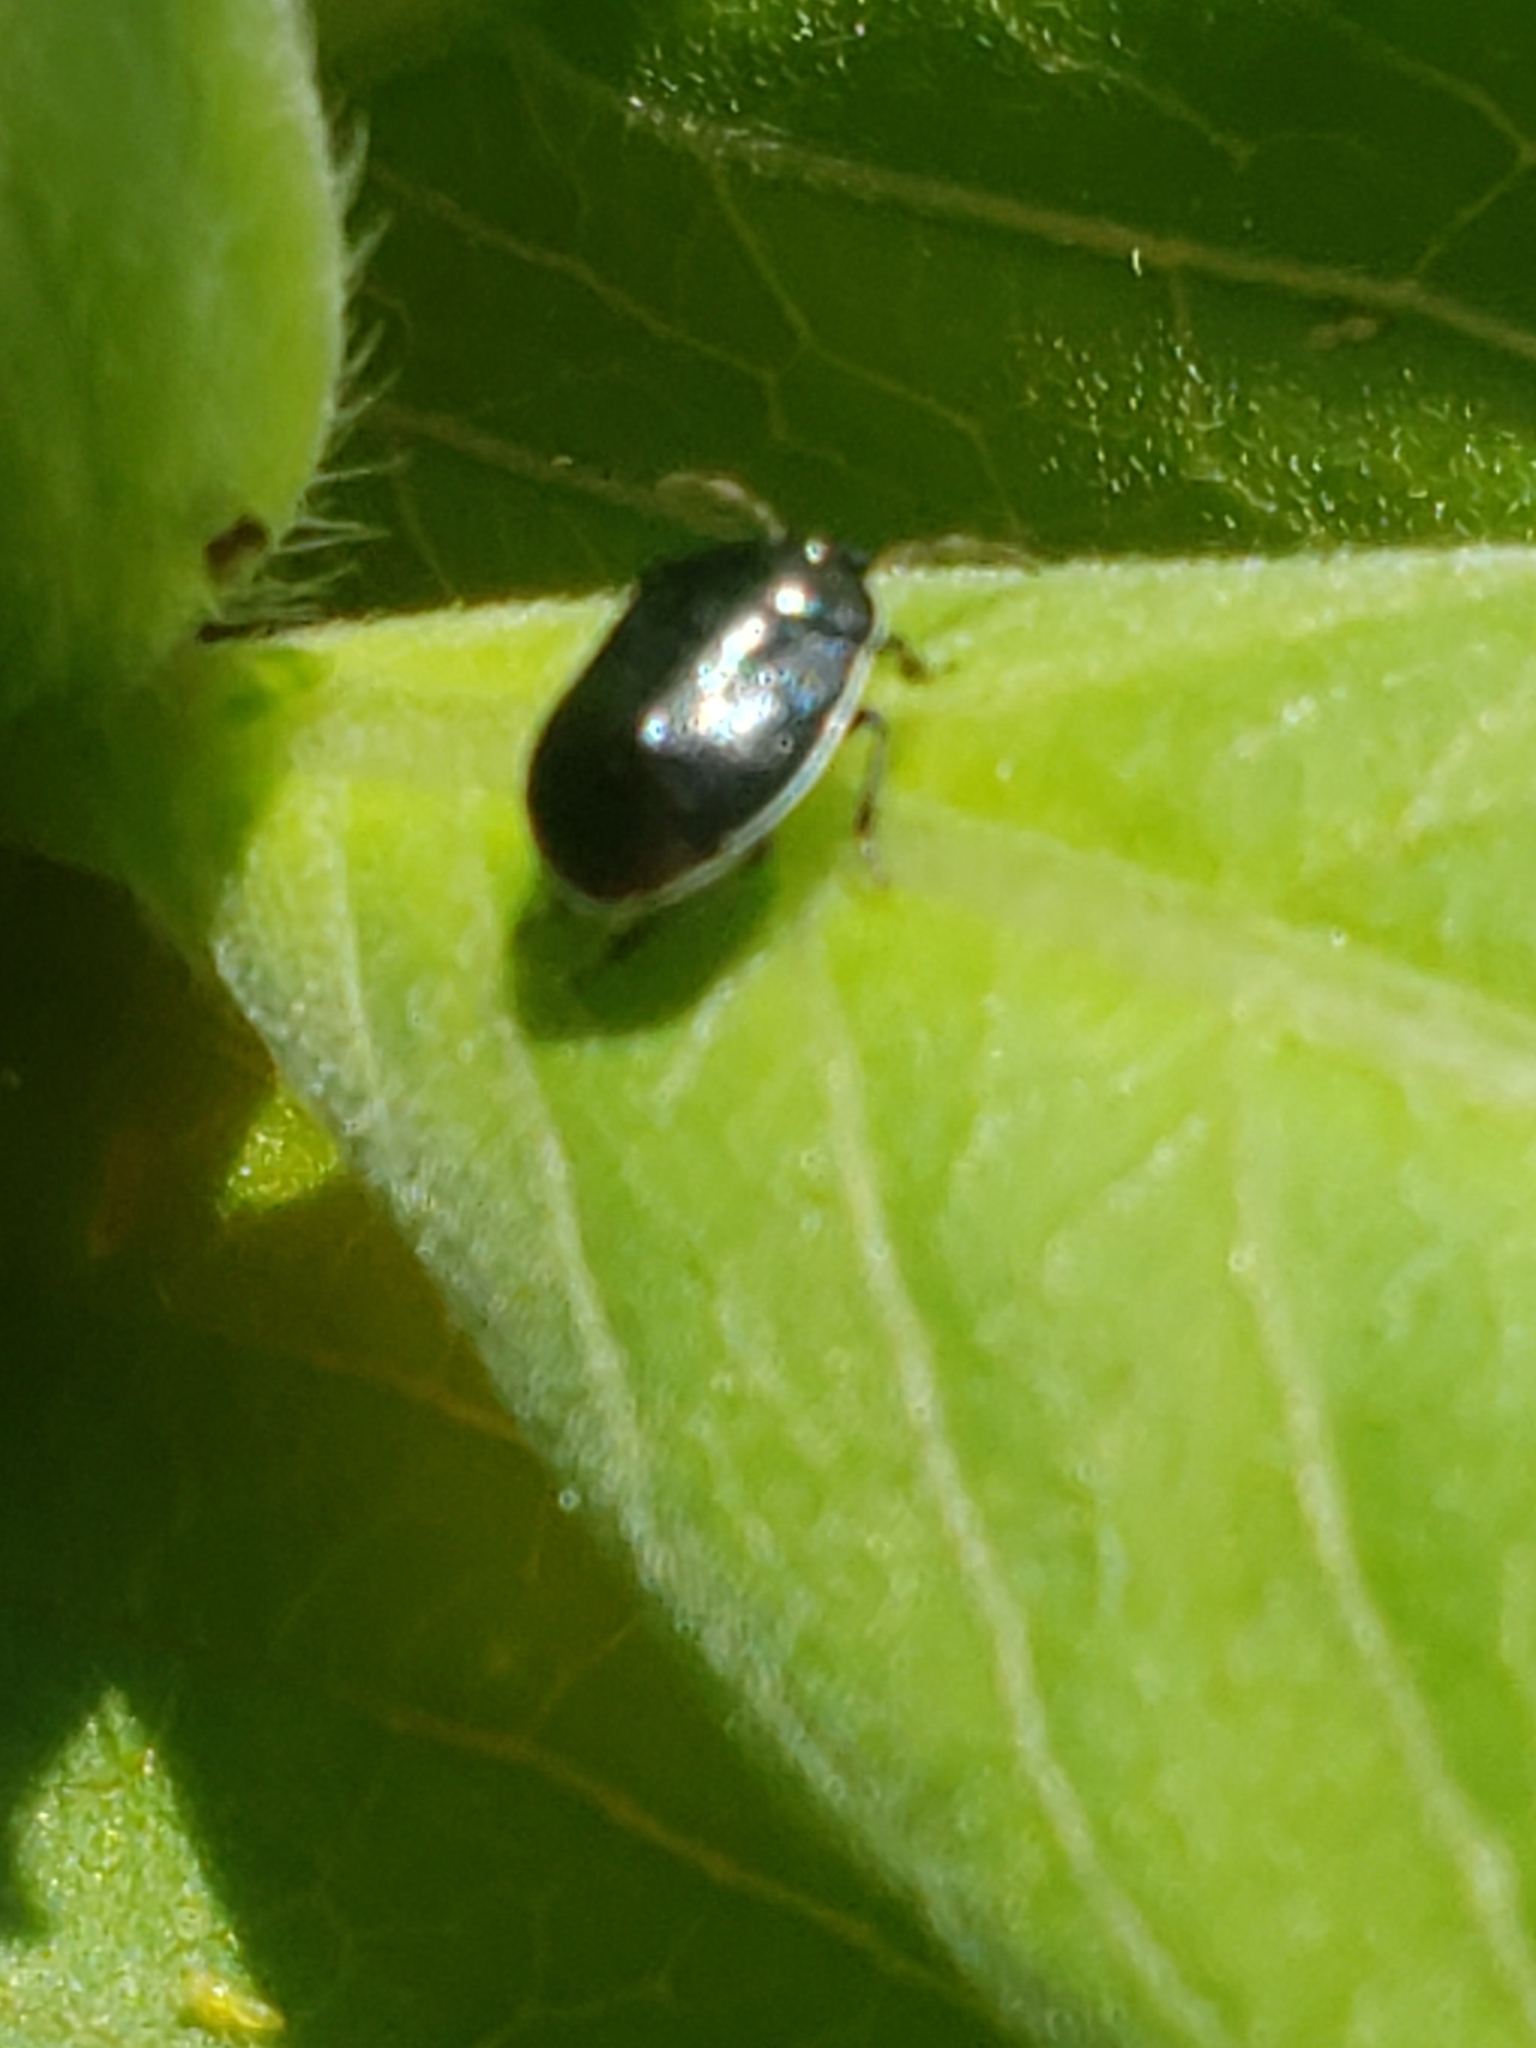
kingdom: Animalia
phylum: Arthropoda
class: Insecta
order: Hemiptera
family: Cydnidae
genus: Sehirus
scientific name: Sehirus cinctus
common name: White-margined burrower bug
